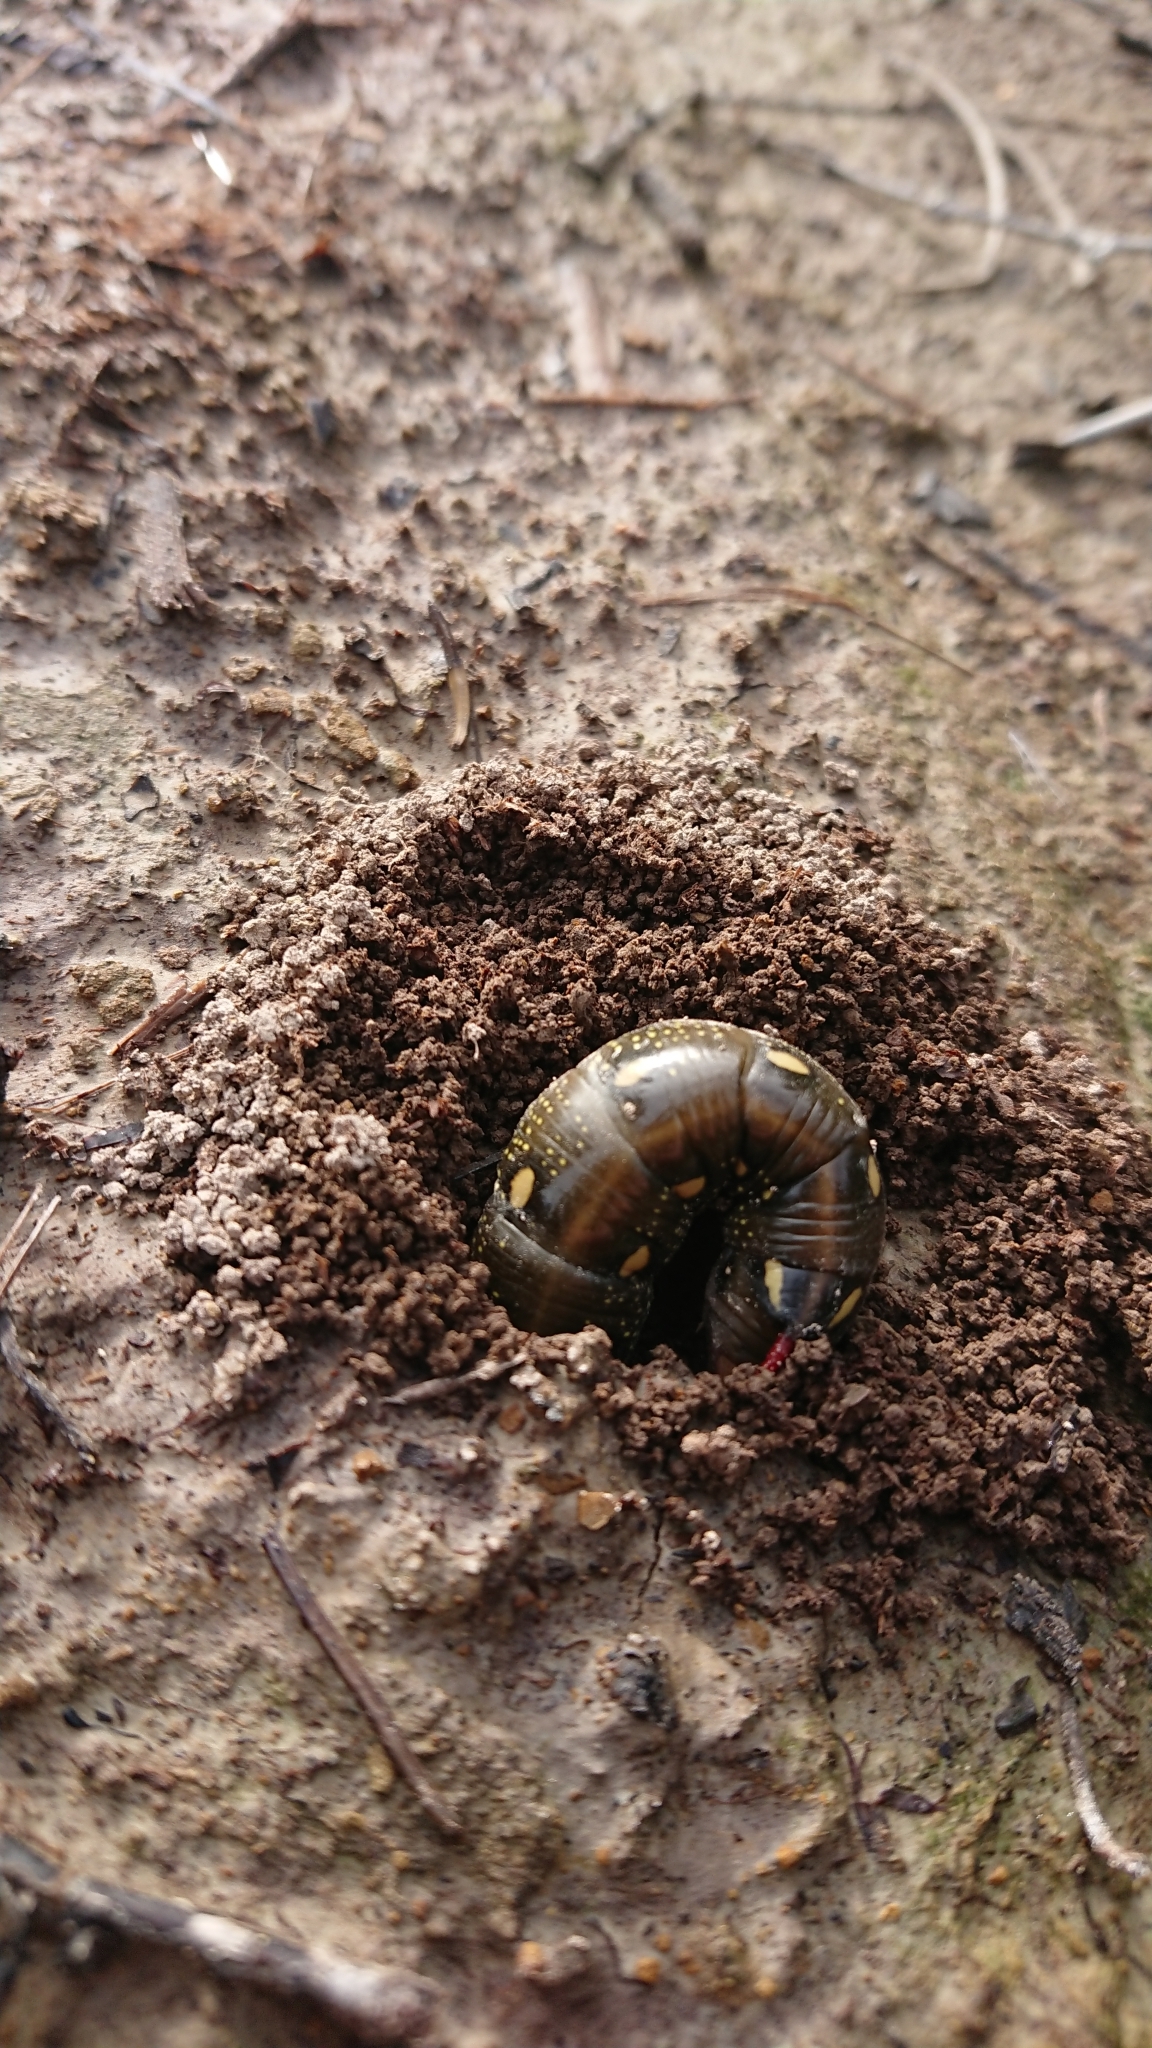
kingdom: Animalia
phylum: Arthropoda
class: Insecta
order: Lepidoptera
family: Sphingidae
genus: Hyles
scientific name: Hyles gallii
